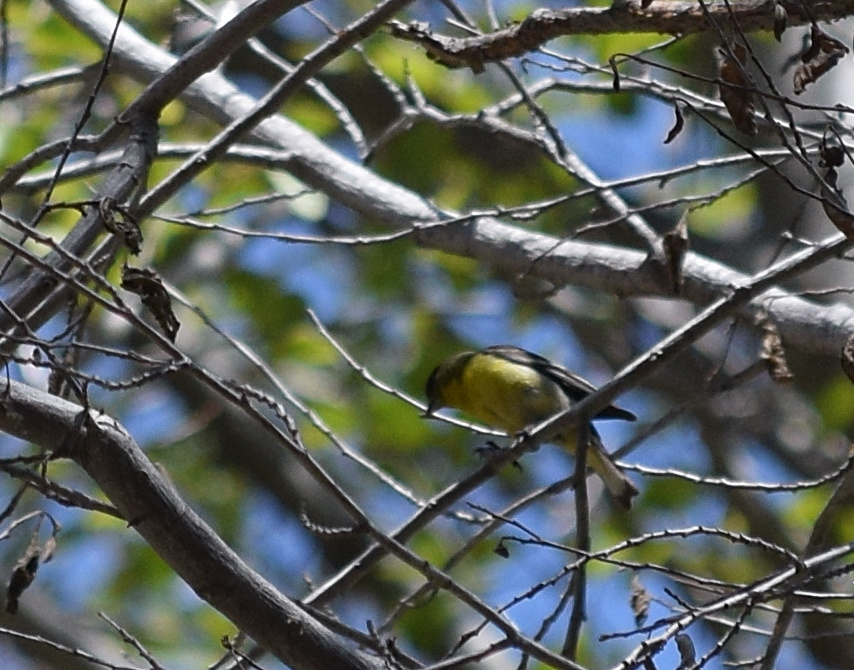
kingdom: Animalia
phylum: Chordata
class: Aves
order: Passeriformes
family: Fringillidae
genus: Spinus
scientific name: Spinus psaltria
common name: Lesser goldfinch
